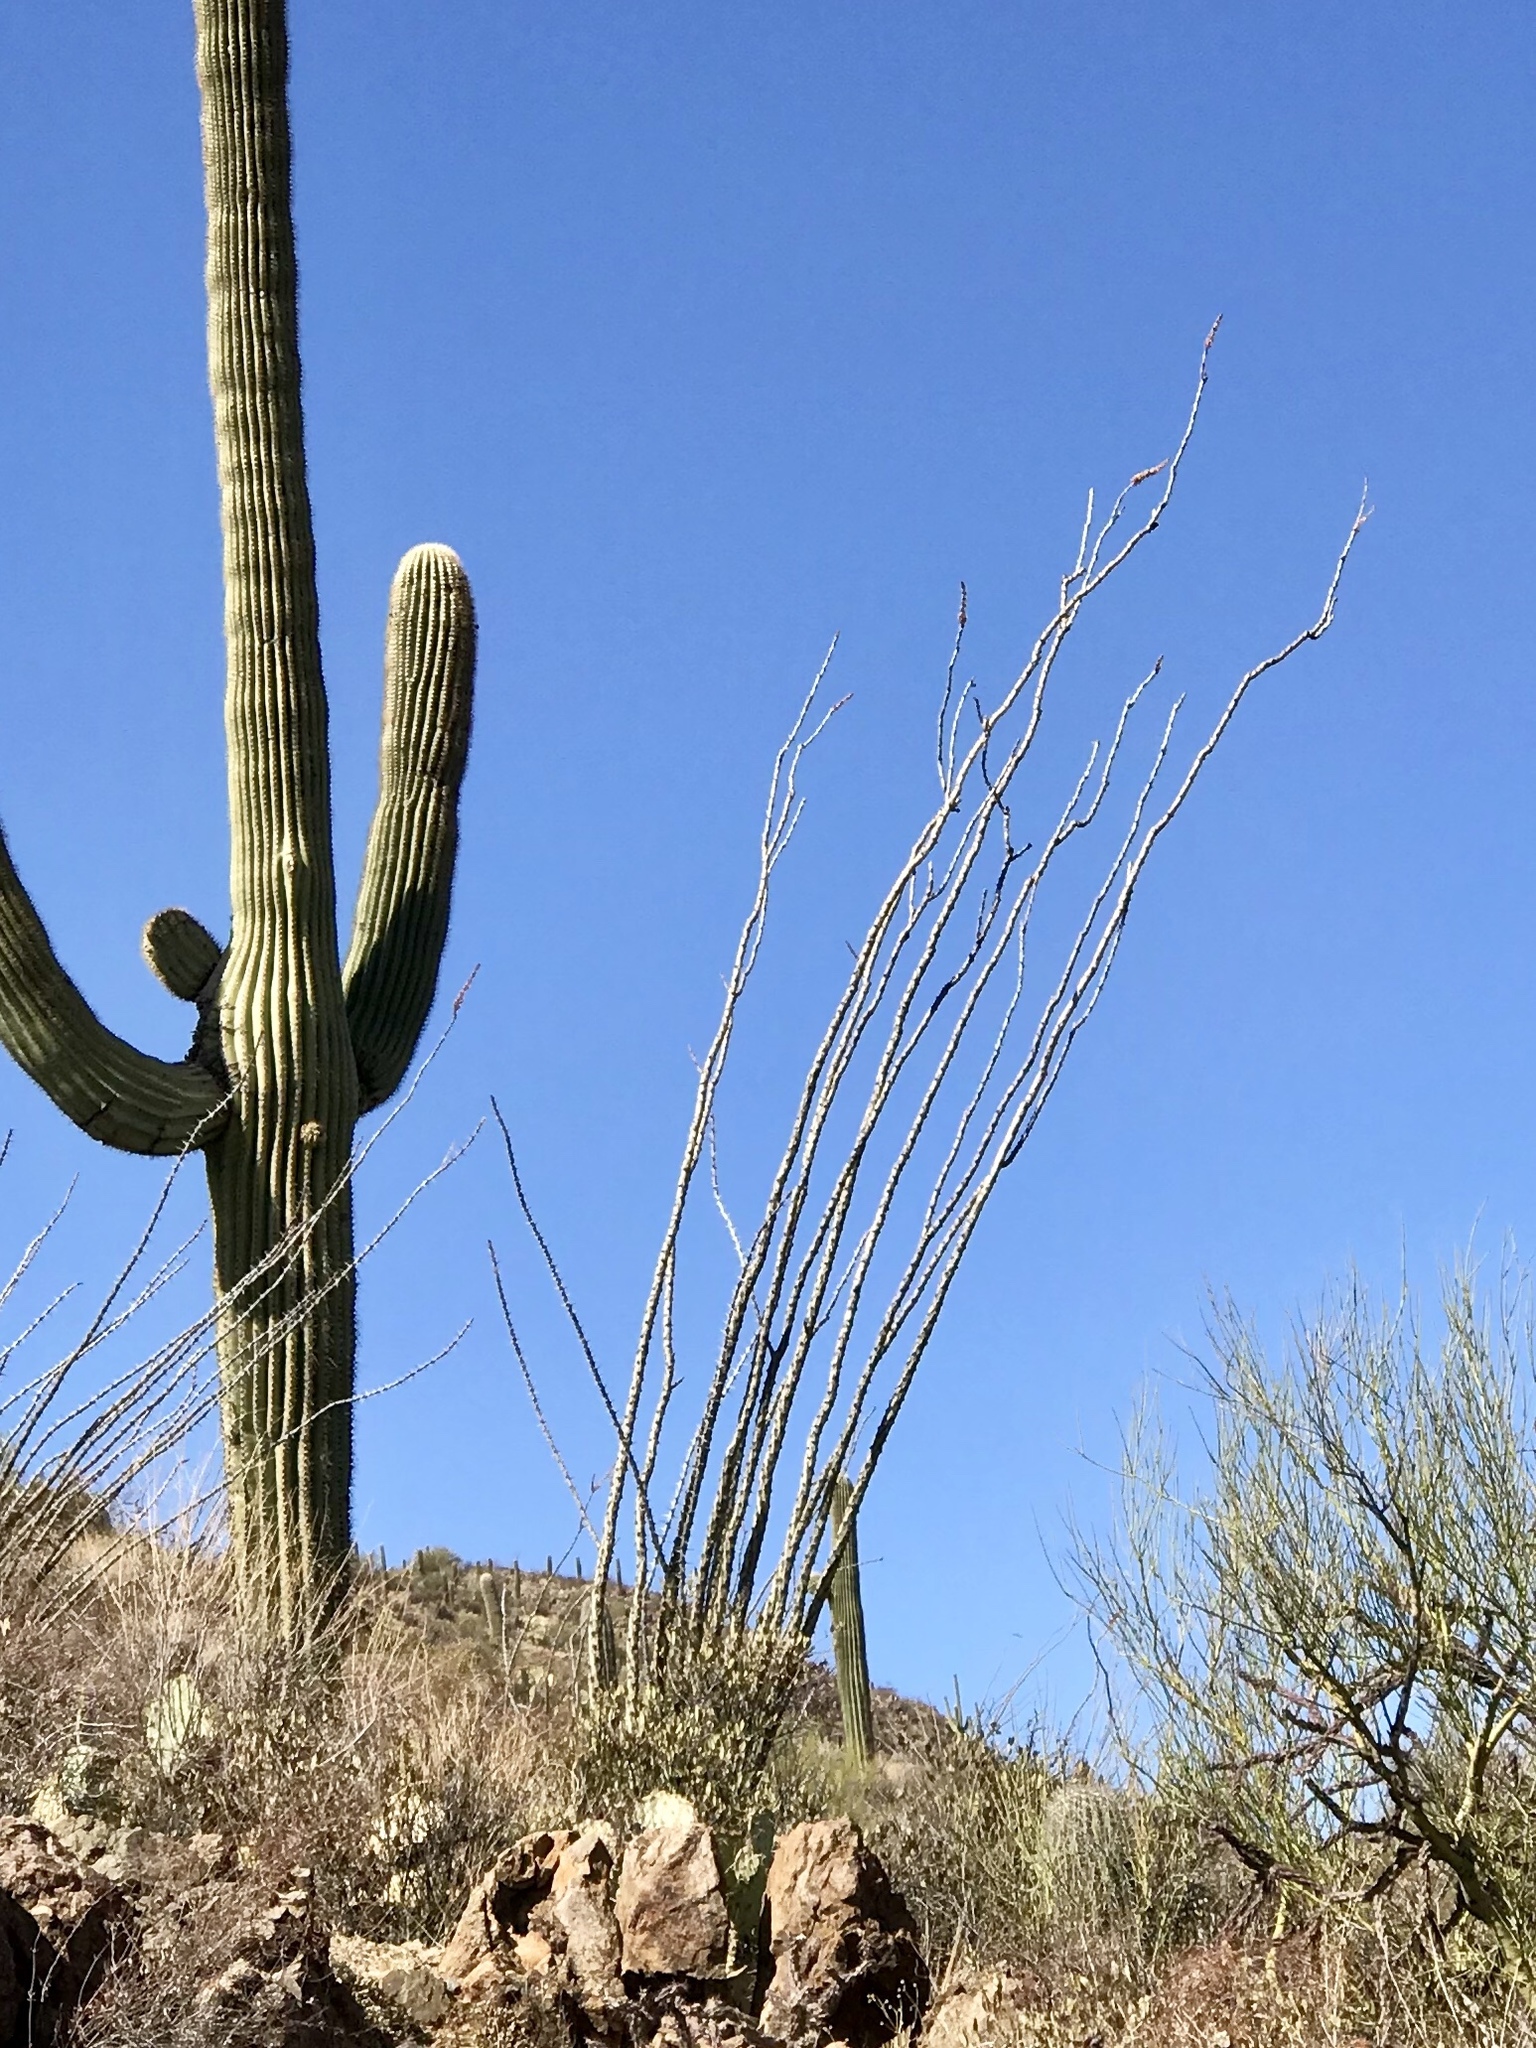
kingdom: Plantae
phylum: Tracheophyta
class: Magnoliopsida
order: Ericales
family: Fouquieriaceae
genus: Fouquieria
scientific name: Fouquieria splendens
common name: Vine-cactus
